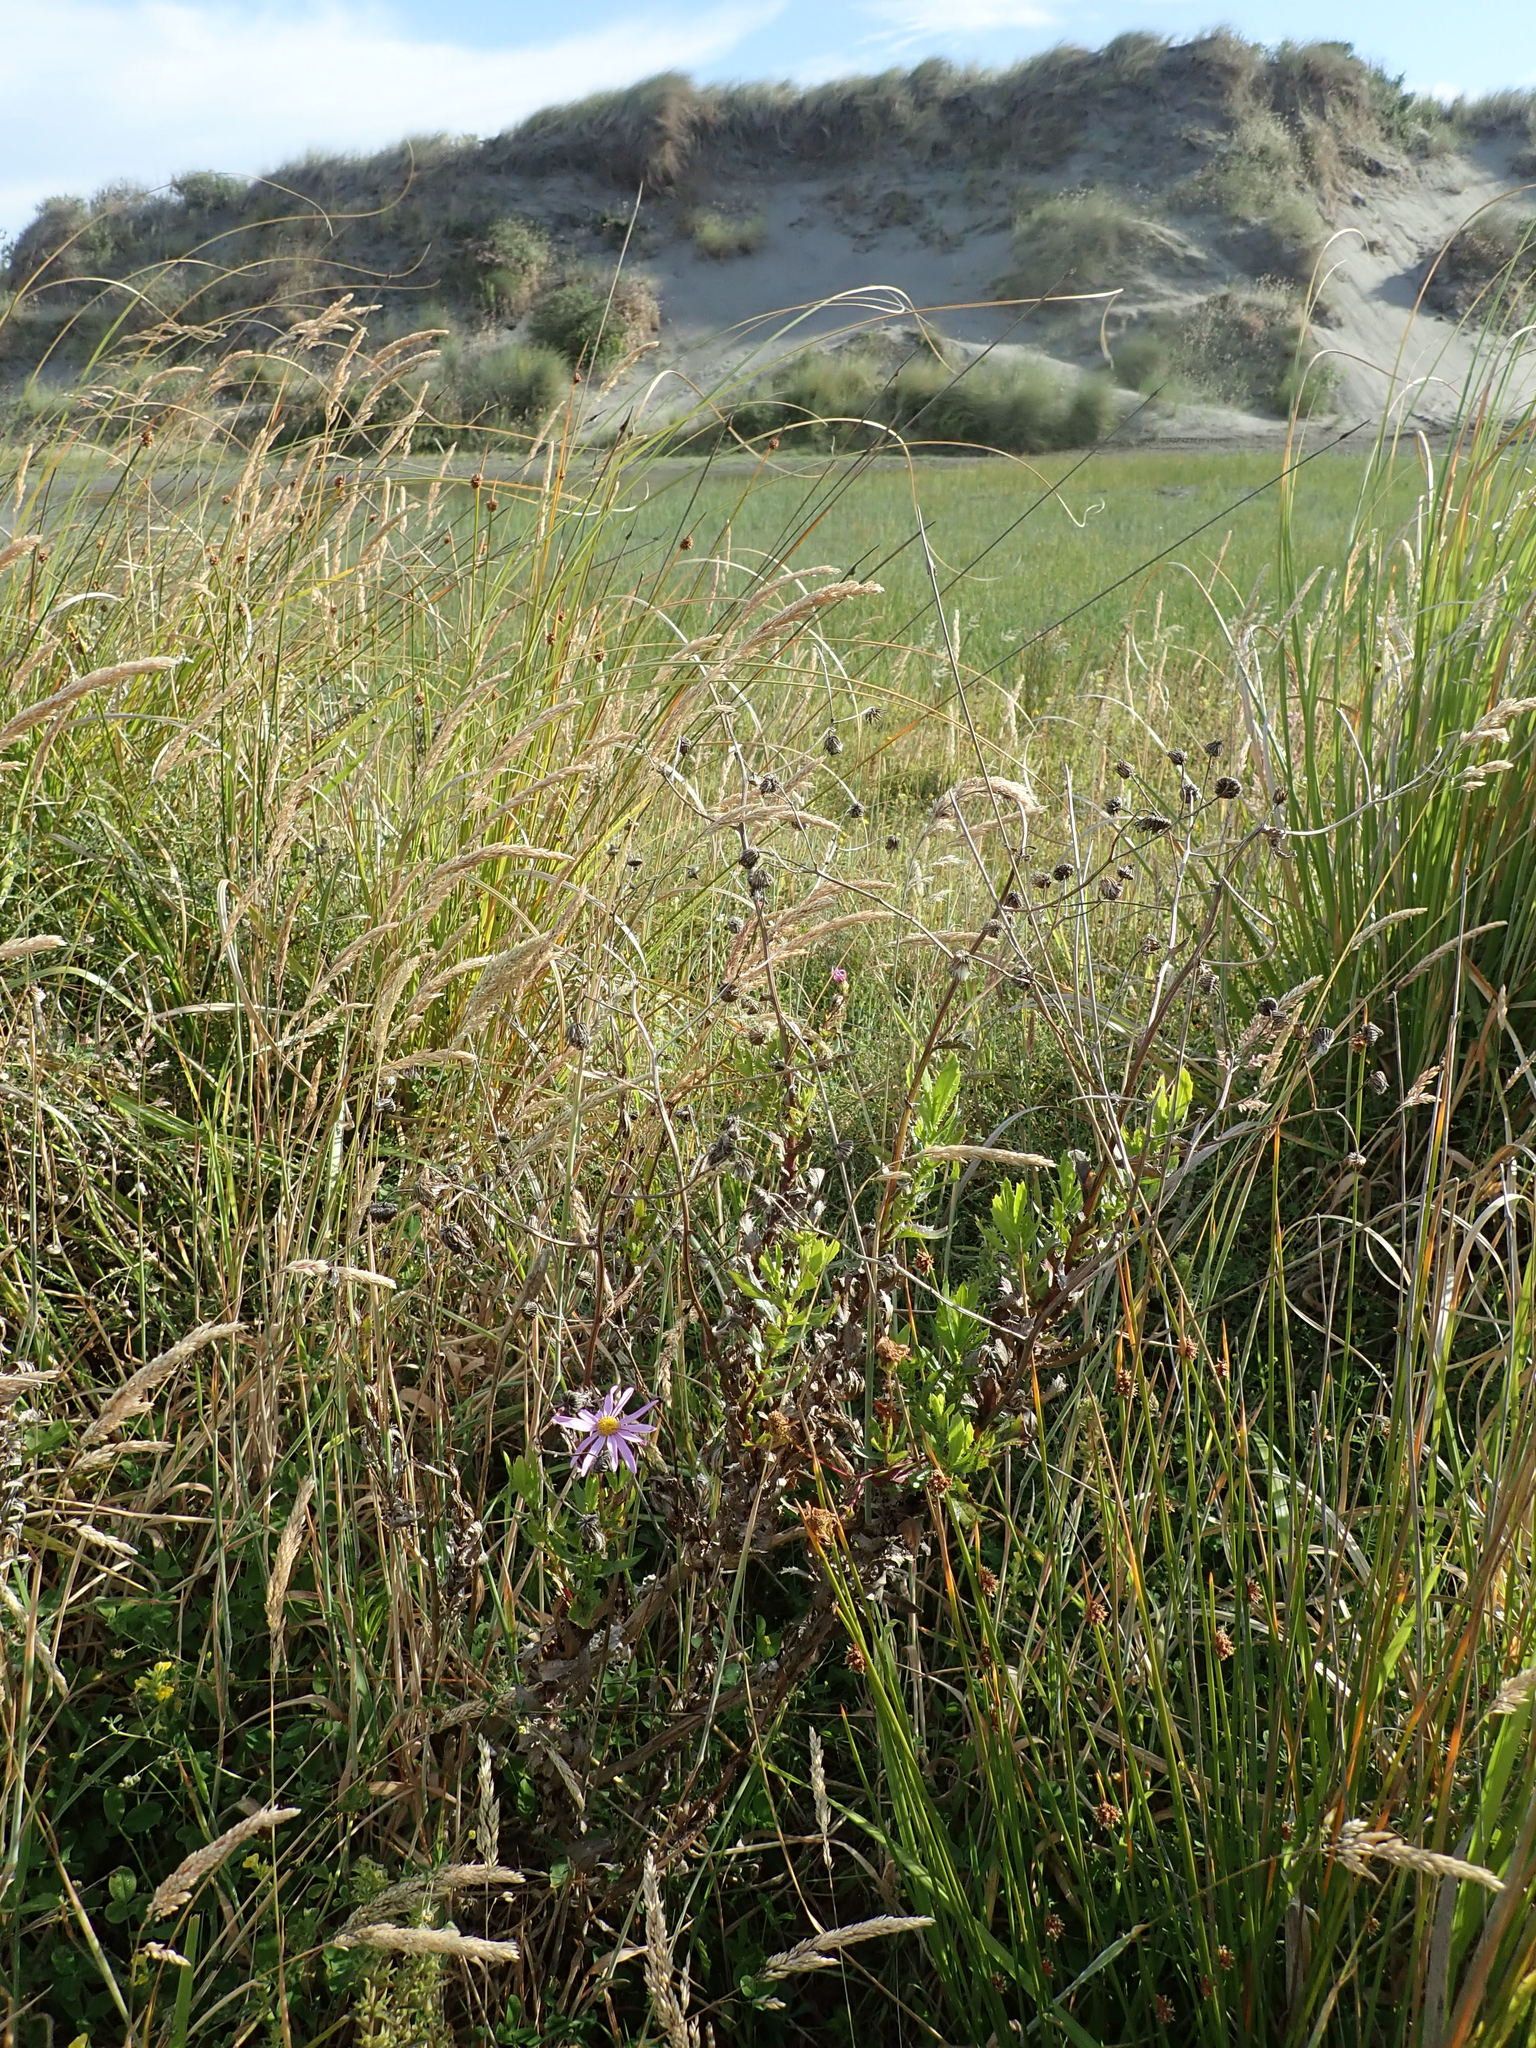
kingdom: Plantae
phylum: Tracheophyta
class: Magnoliopsida
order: Asterales
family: Asteraceae
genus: Senecio
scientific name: Senecio glastifolius
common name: Woad-leaved ragwort
